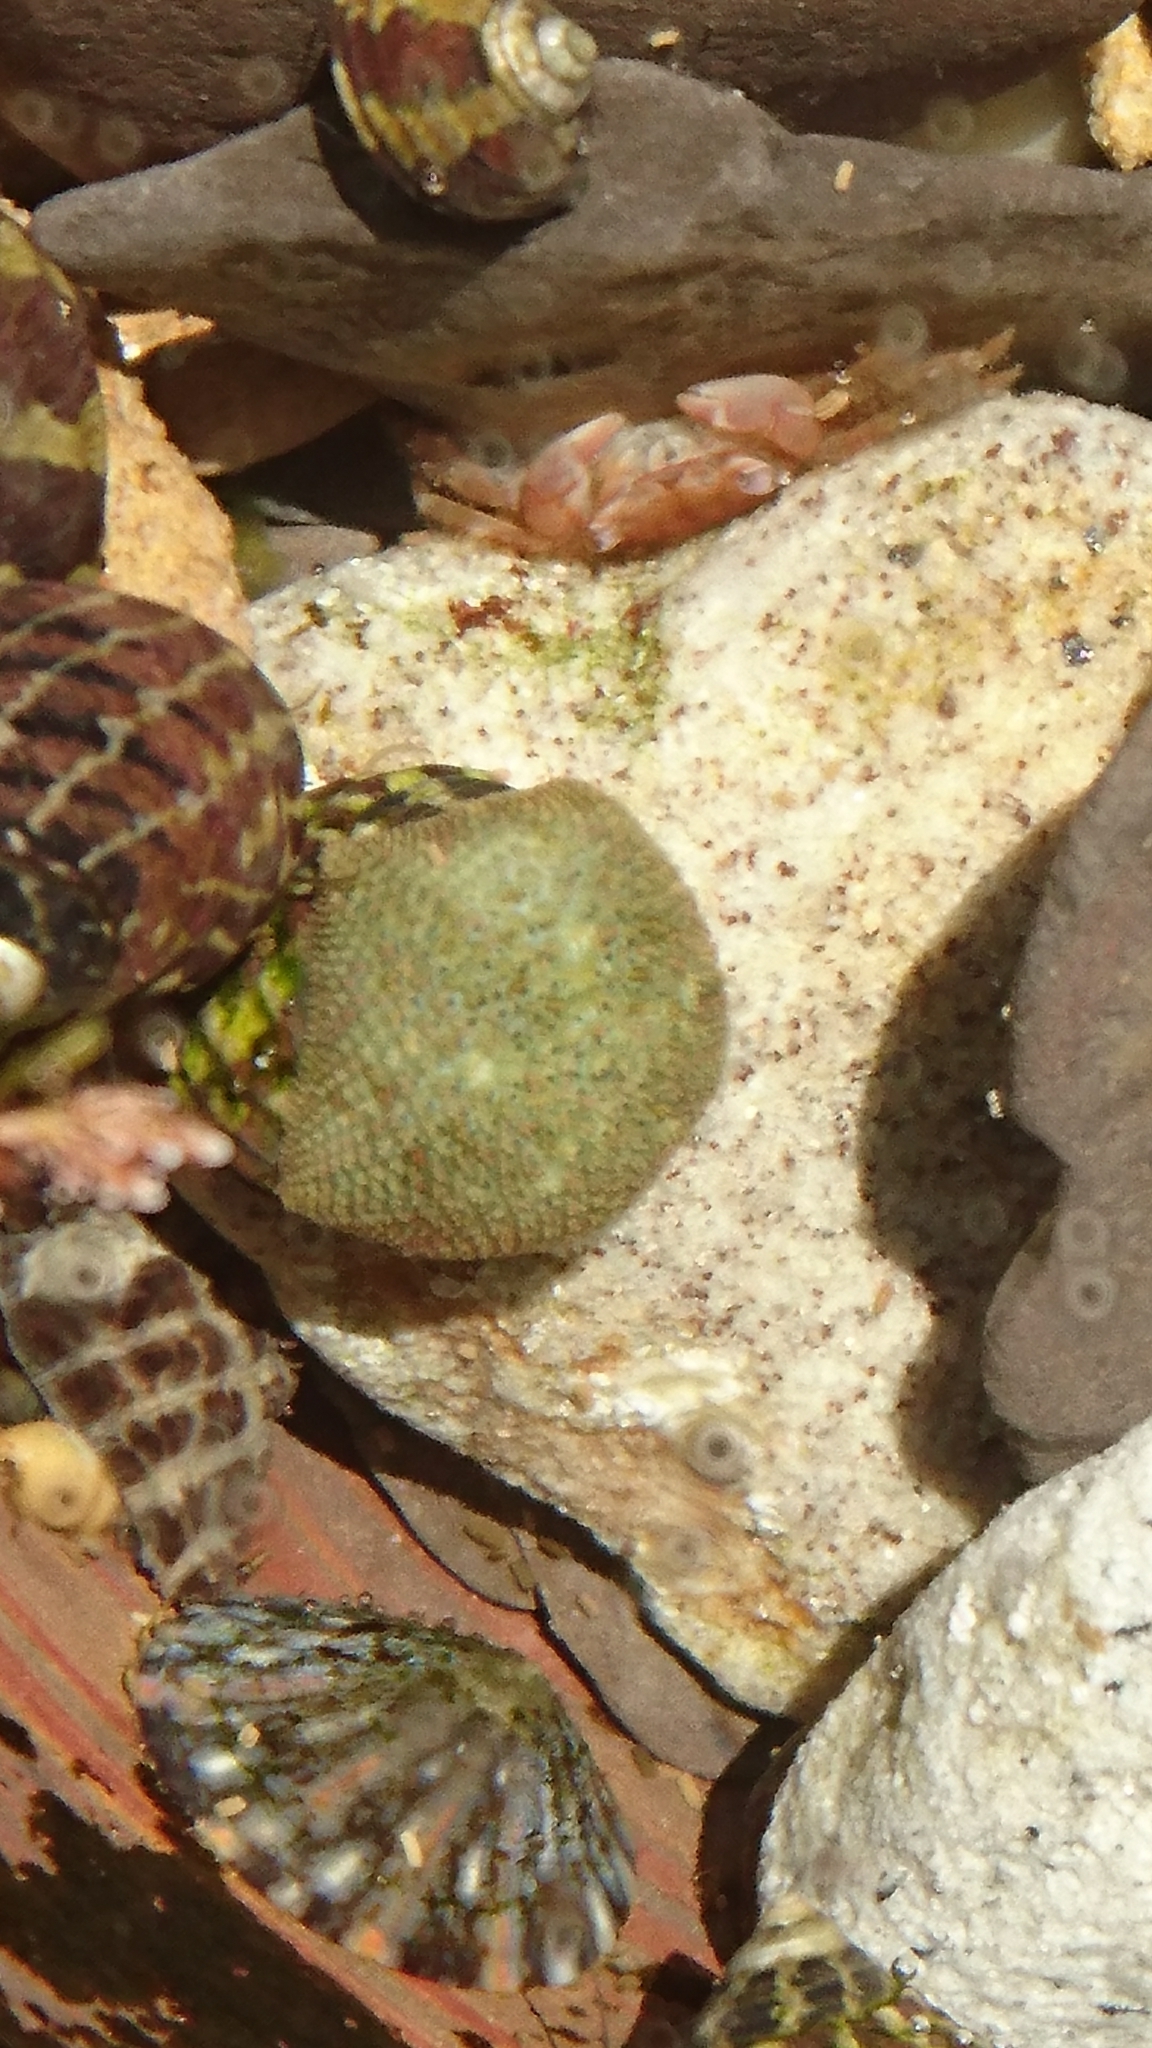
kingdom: Animalia
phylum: Echinodermata
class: Asteroidea
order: Valvatida
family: Asterinidae
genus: Parvulastra
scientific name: Parvulastra exigua
